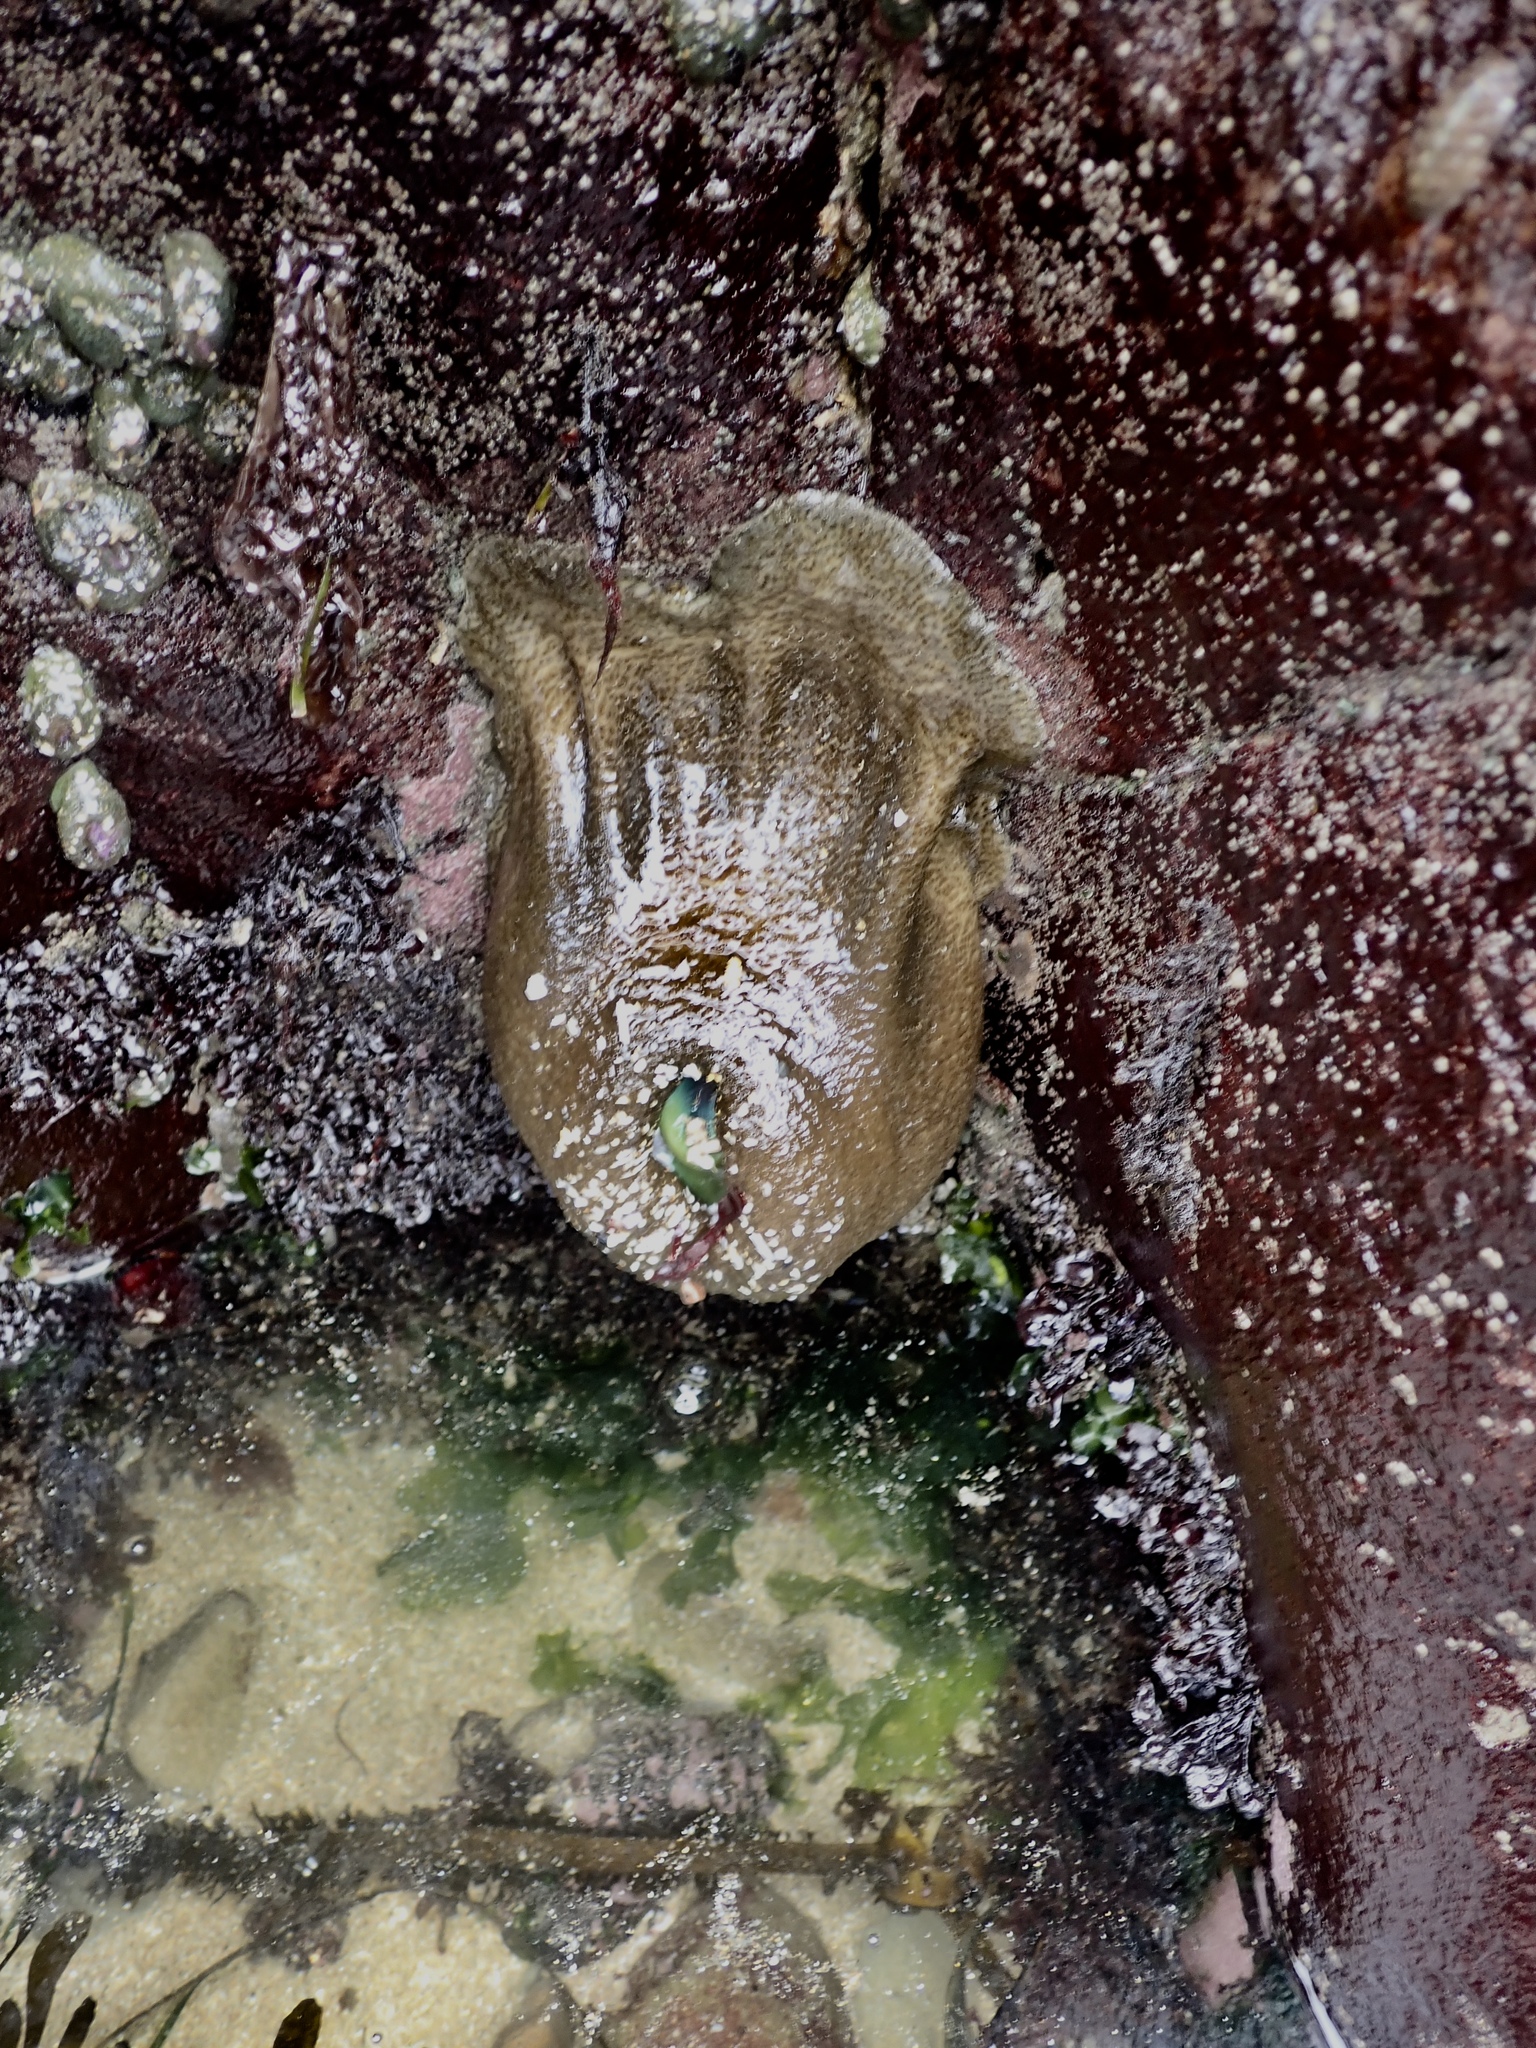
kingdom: Animalia
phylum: Cnidaria
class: Anthozoa
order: Actiniaria
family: Actiniidae
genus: Anthopleura
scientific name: Anthopleura xanthogrammica
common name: Giant green anemone
